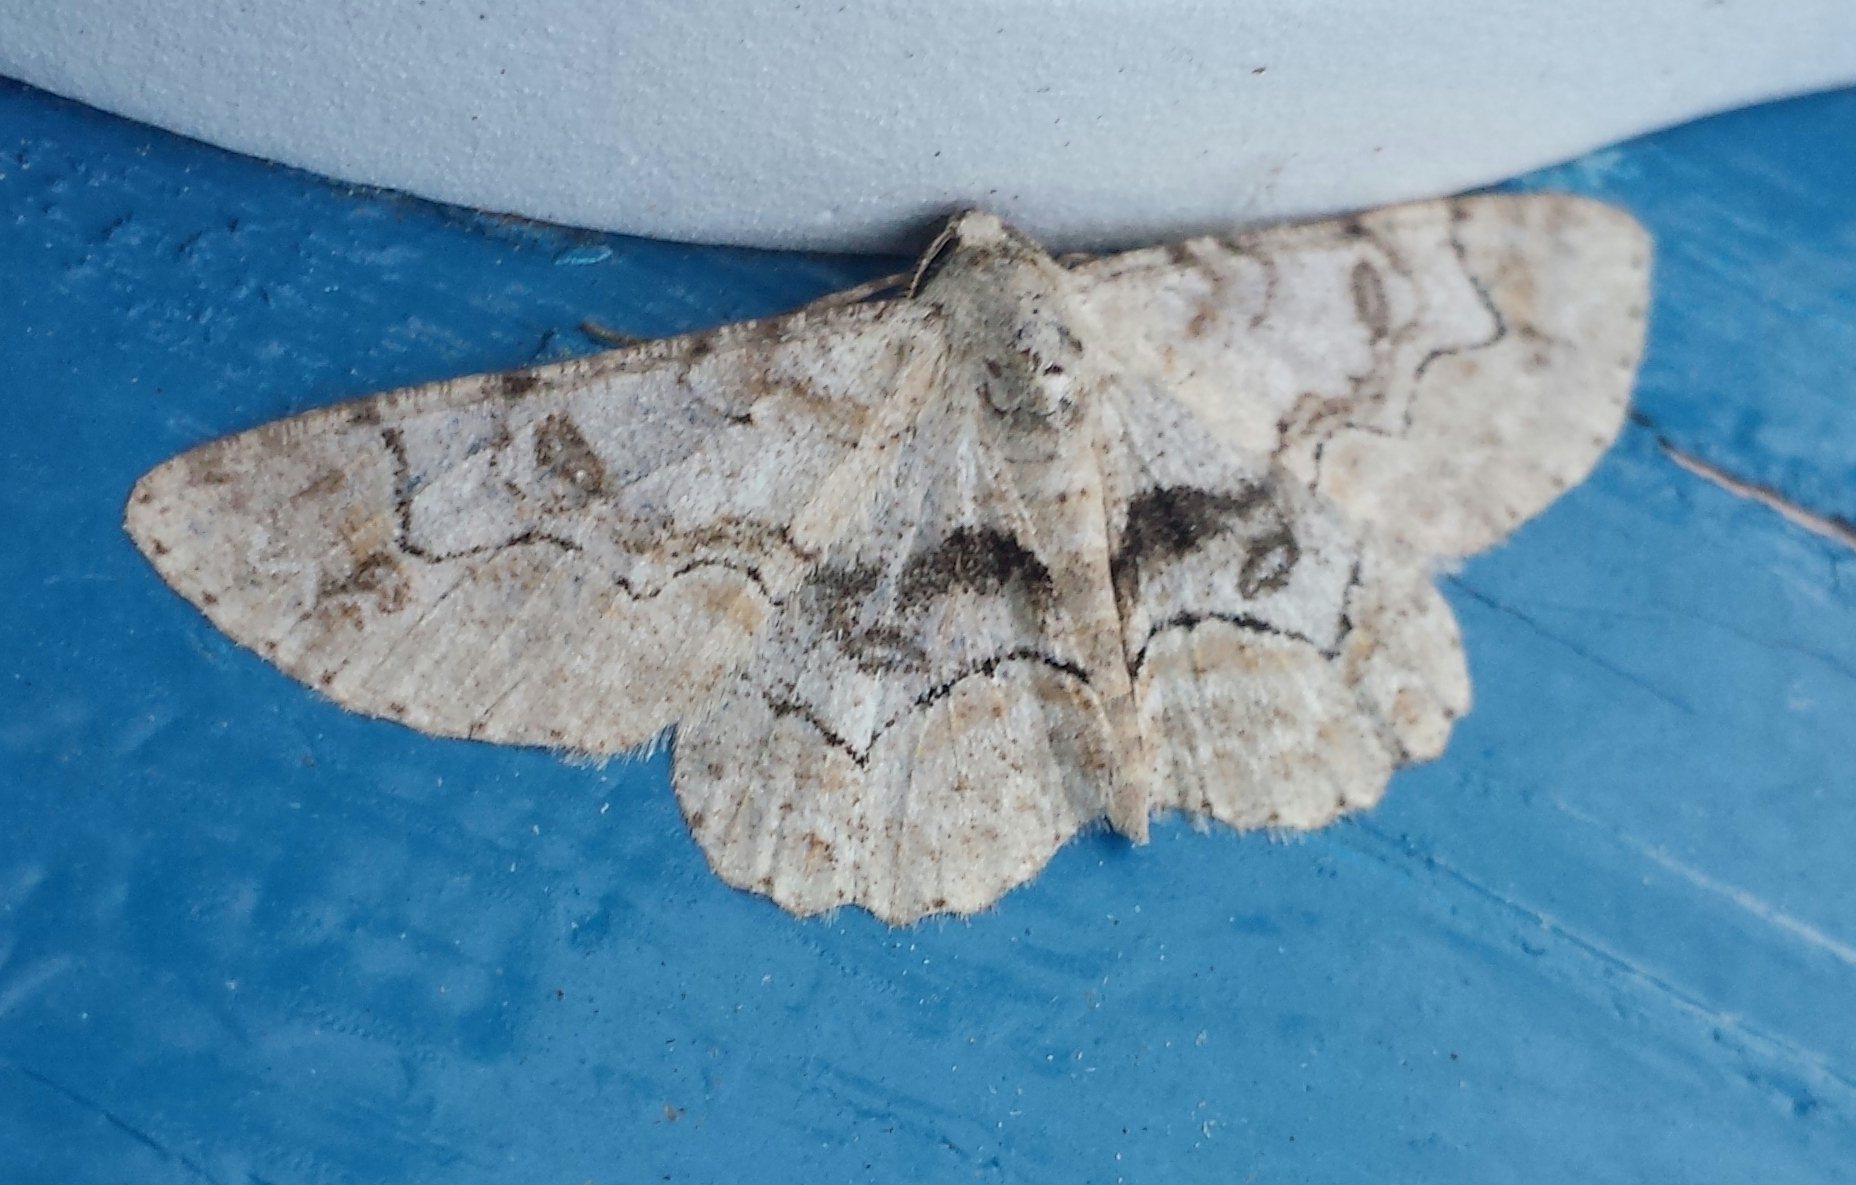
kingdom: Animalia
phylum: Arthropoda
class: Insecta
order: Lepidoptera
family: Geometridae
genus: Iridopsis
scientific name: Iridopsis larvaria
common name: Bent-line gray
